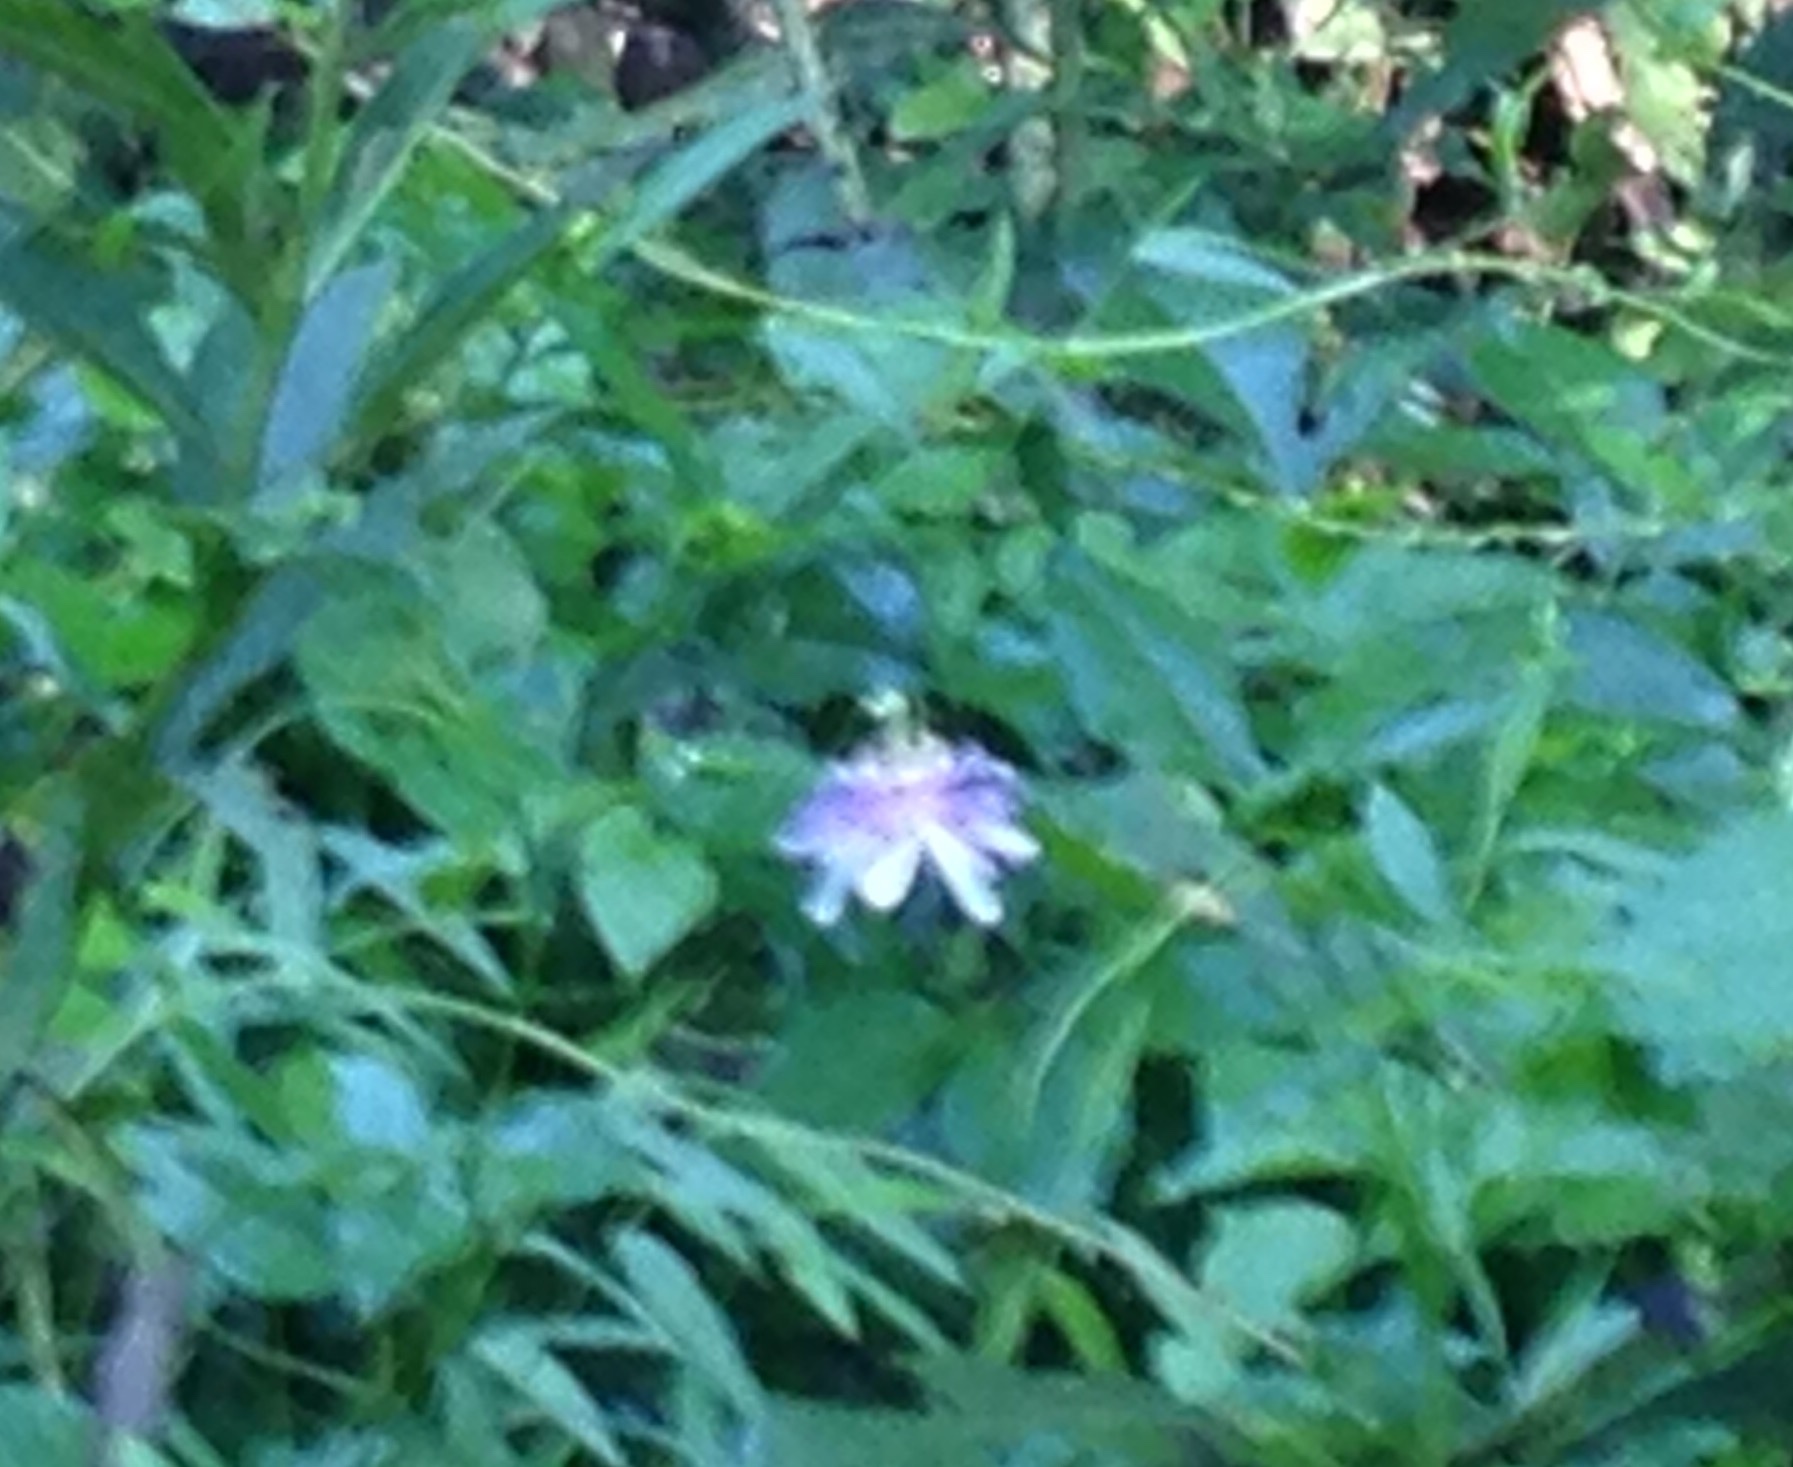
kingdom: Plantae
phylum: Tracheophyta
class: Magnoliopsida
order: Malpighiales
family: Passifloraceae
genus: Passiflora
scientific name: Passiflora incarnata
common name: Apricot-vine
